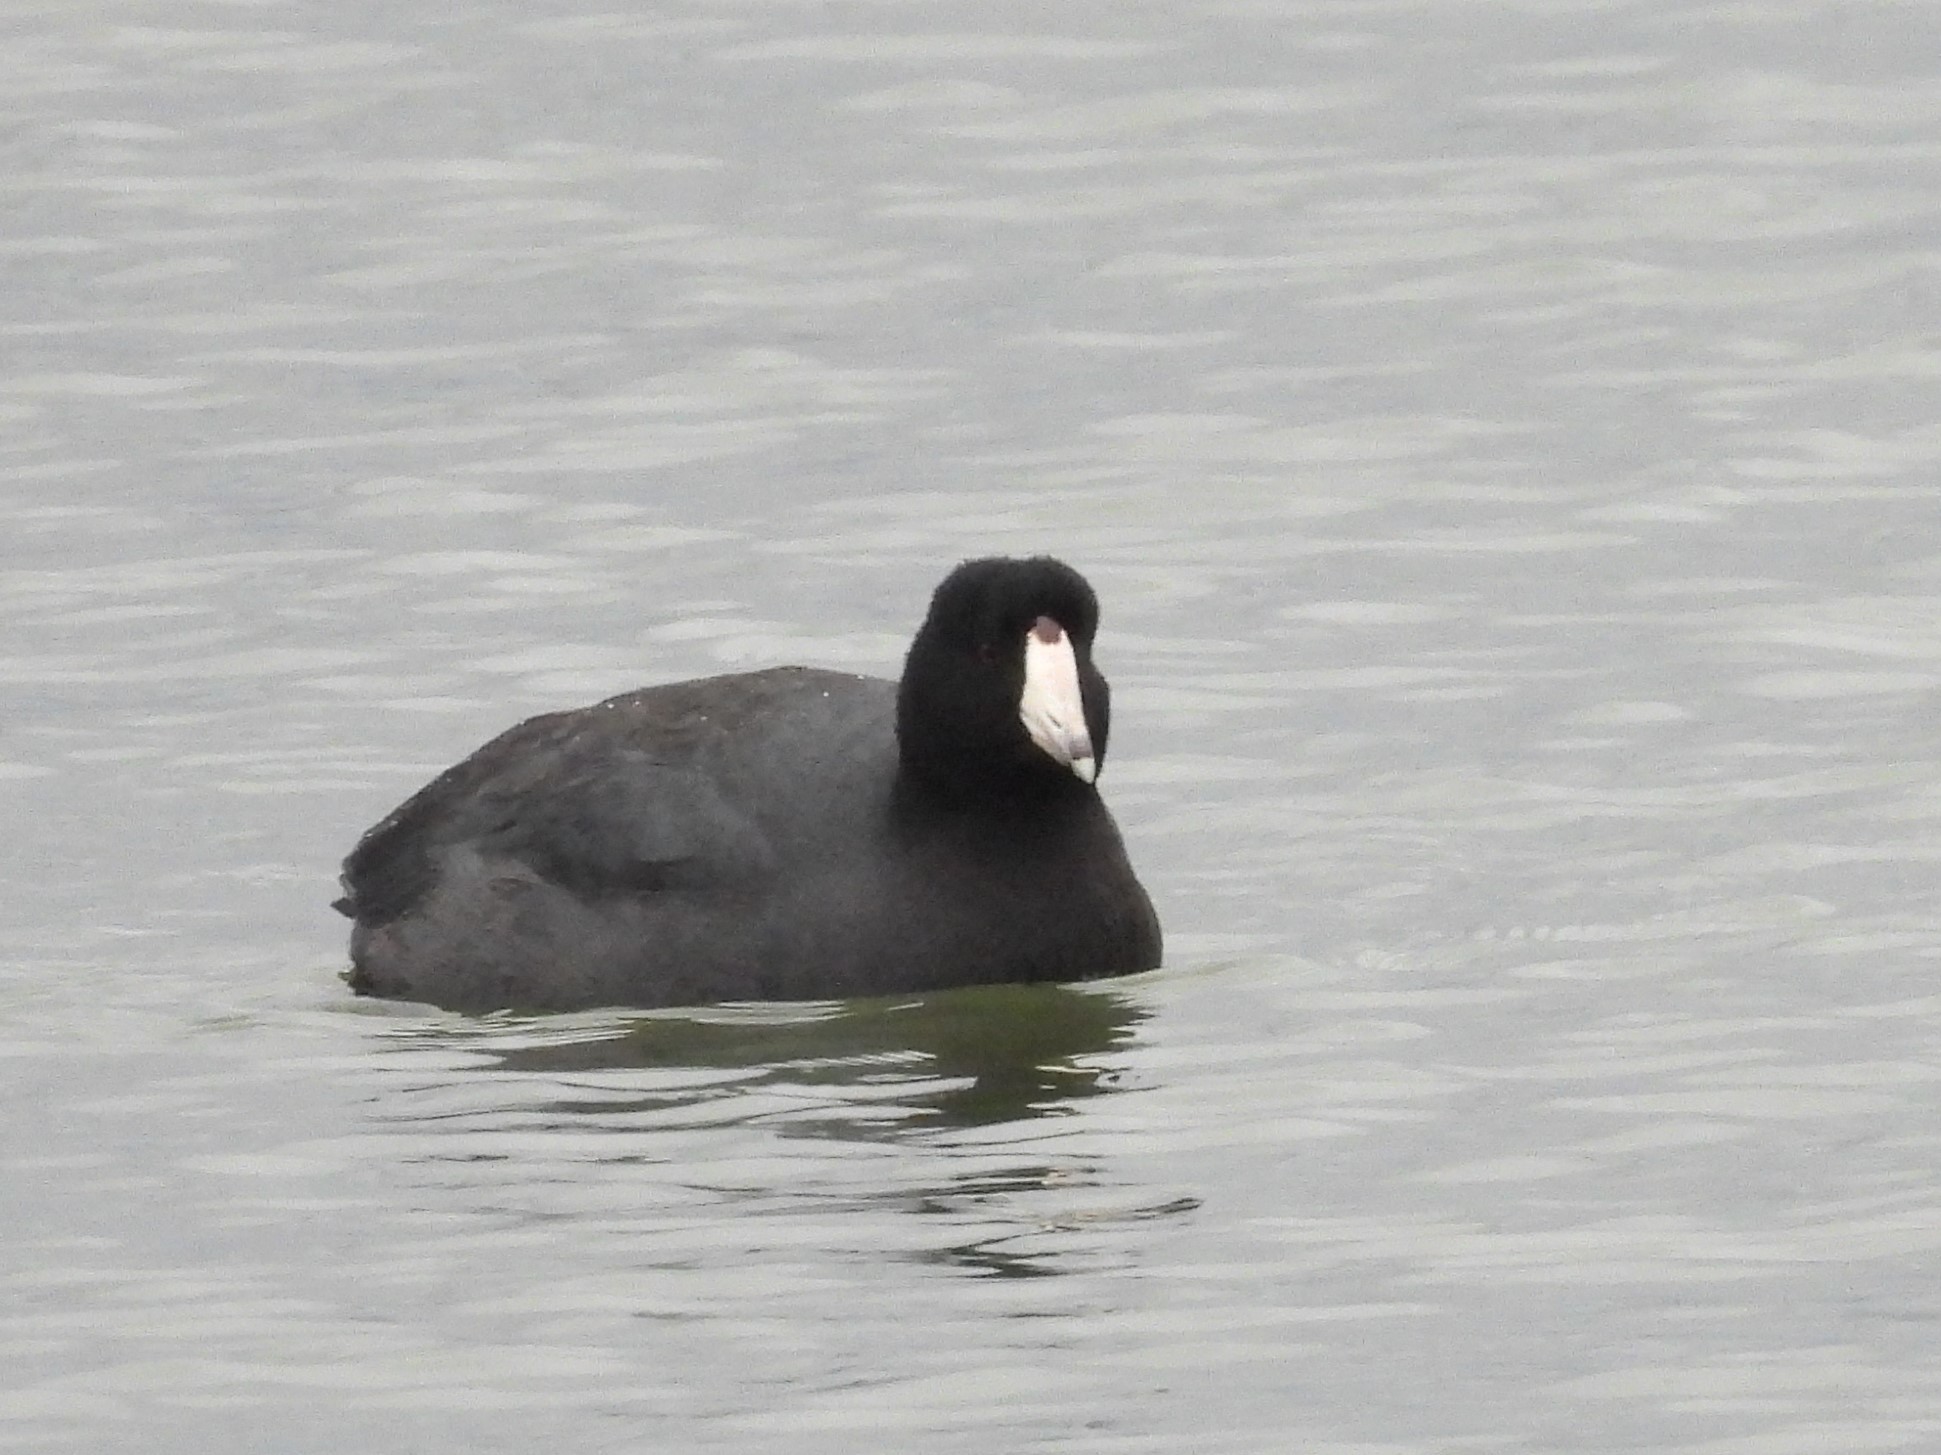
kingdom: Animalia
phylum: Chordata
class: Aves
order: Gruiformes
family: Rallidae
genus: Fulica
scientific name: Fulica americana
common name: American coot
